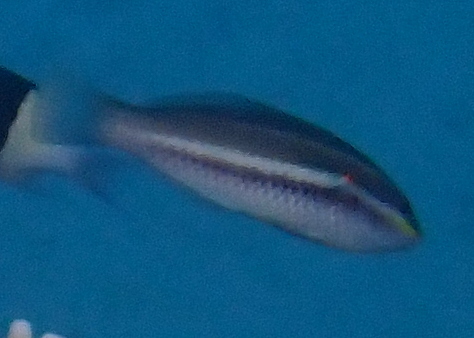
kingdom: Animalia
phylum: Chordata
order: Perciformes
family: Labridae
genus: Stethojulis
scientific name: Stethojulis albovittata
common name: Bluelined wrasse
